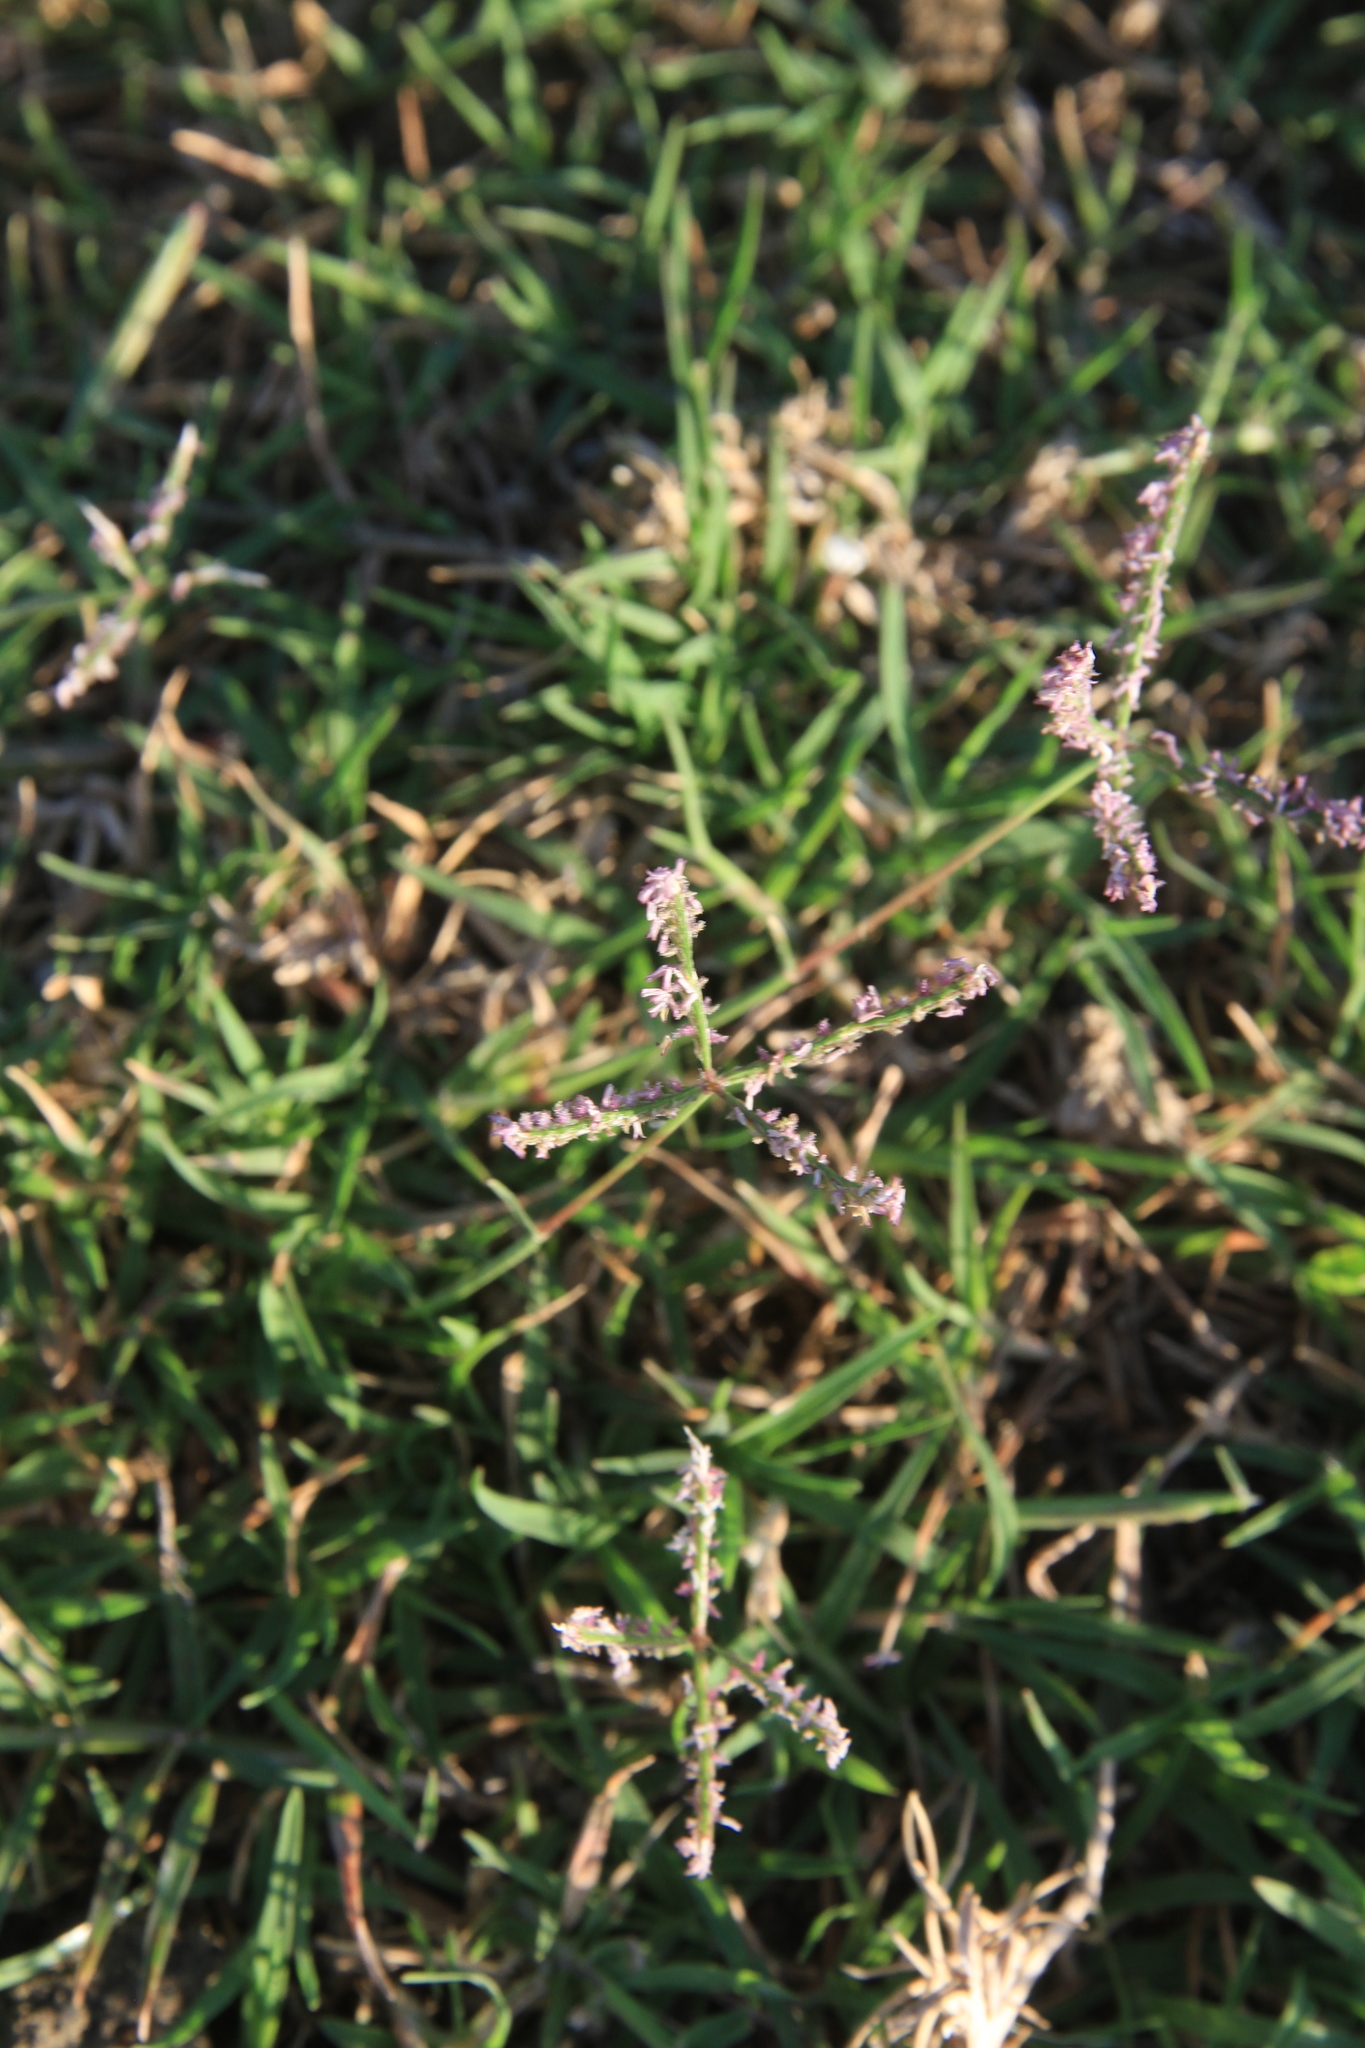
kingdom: Plantae
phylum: Tracheophyta
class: Liliopsida
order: Poales
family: Poaceae
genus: Cynodon
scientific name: Cynodon dactylon
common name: Bermuda grass
